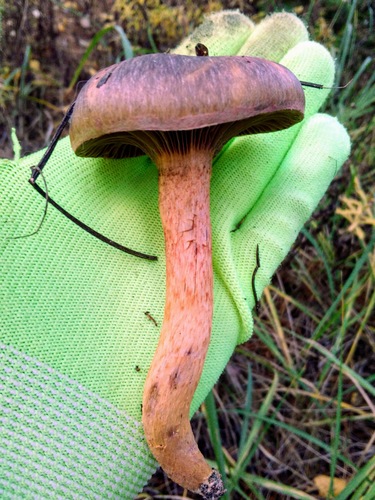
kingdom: Fungi
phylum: Basidiomycota
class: Agaricomycetes
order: Boletales
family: Gomphidiaceae
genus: Chroogomphus
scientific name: Chroogomphus rutilus
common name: Copper spike
